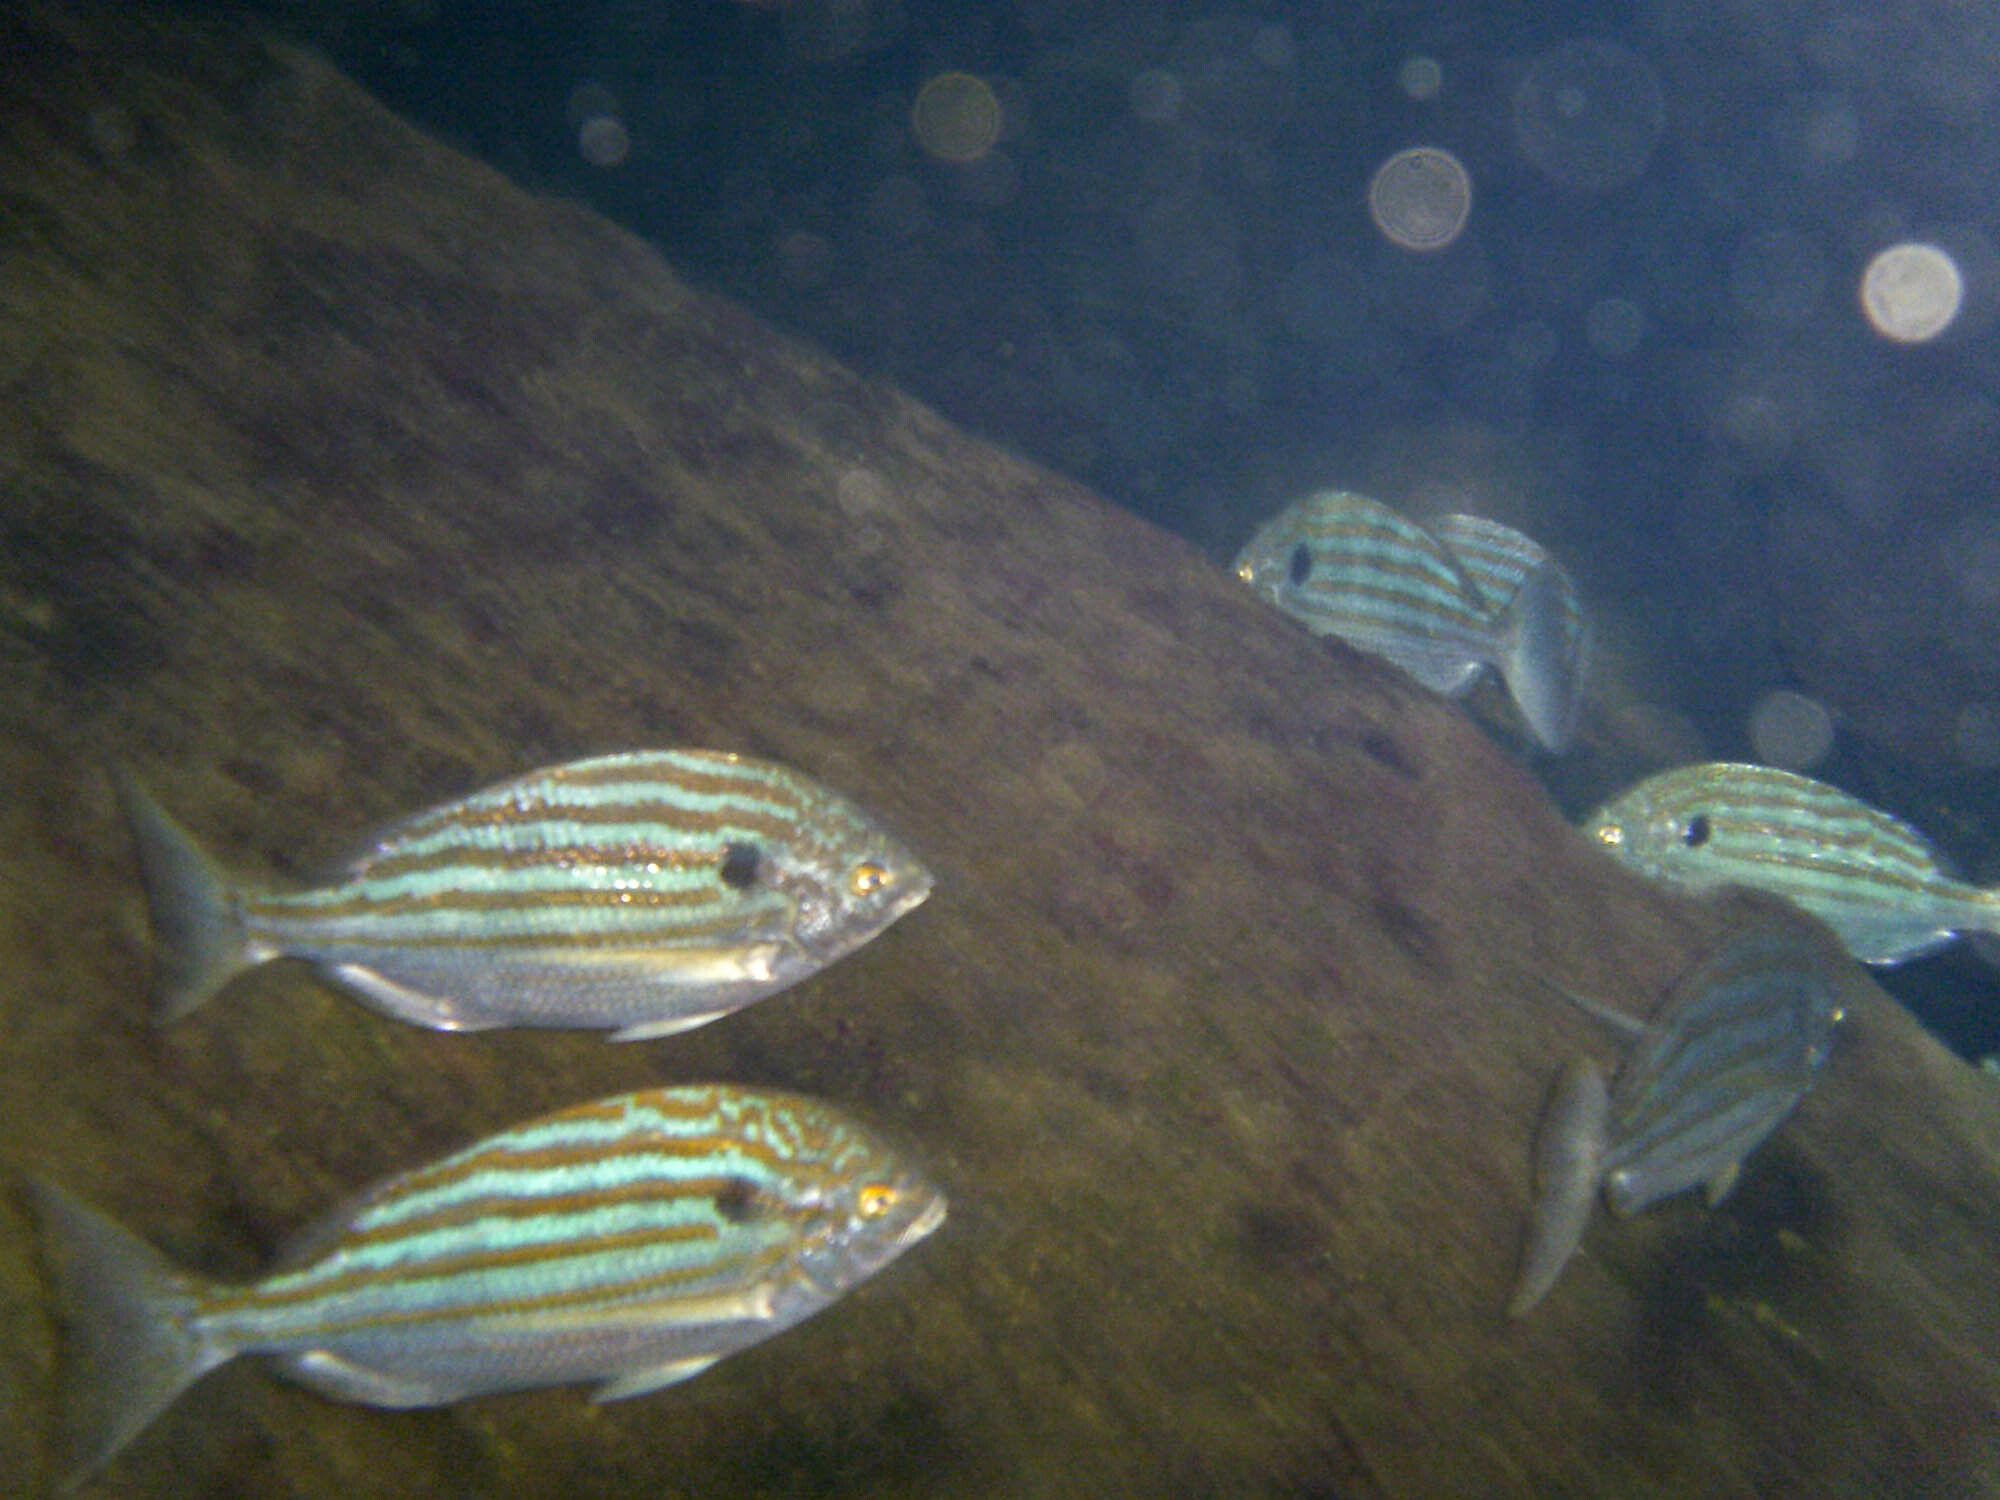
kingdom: Animalia
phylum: Chordata
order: Perciformes
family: Sparidae
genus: Archosargus
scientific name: Archosargus pourtalesii
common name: Blackspot porgy
